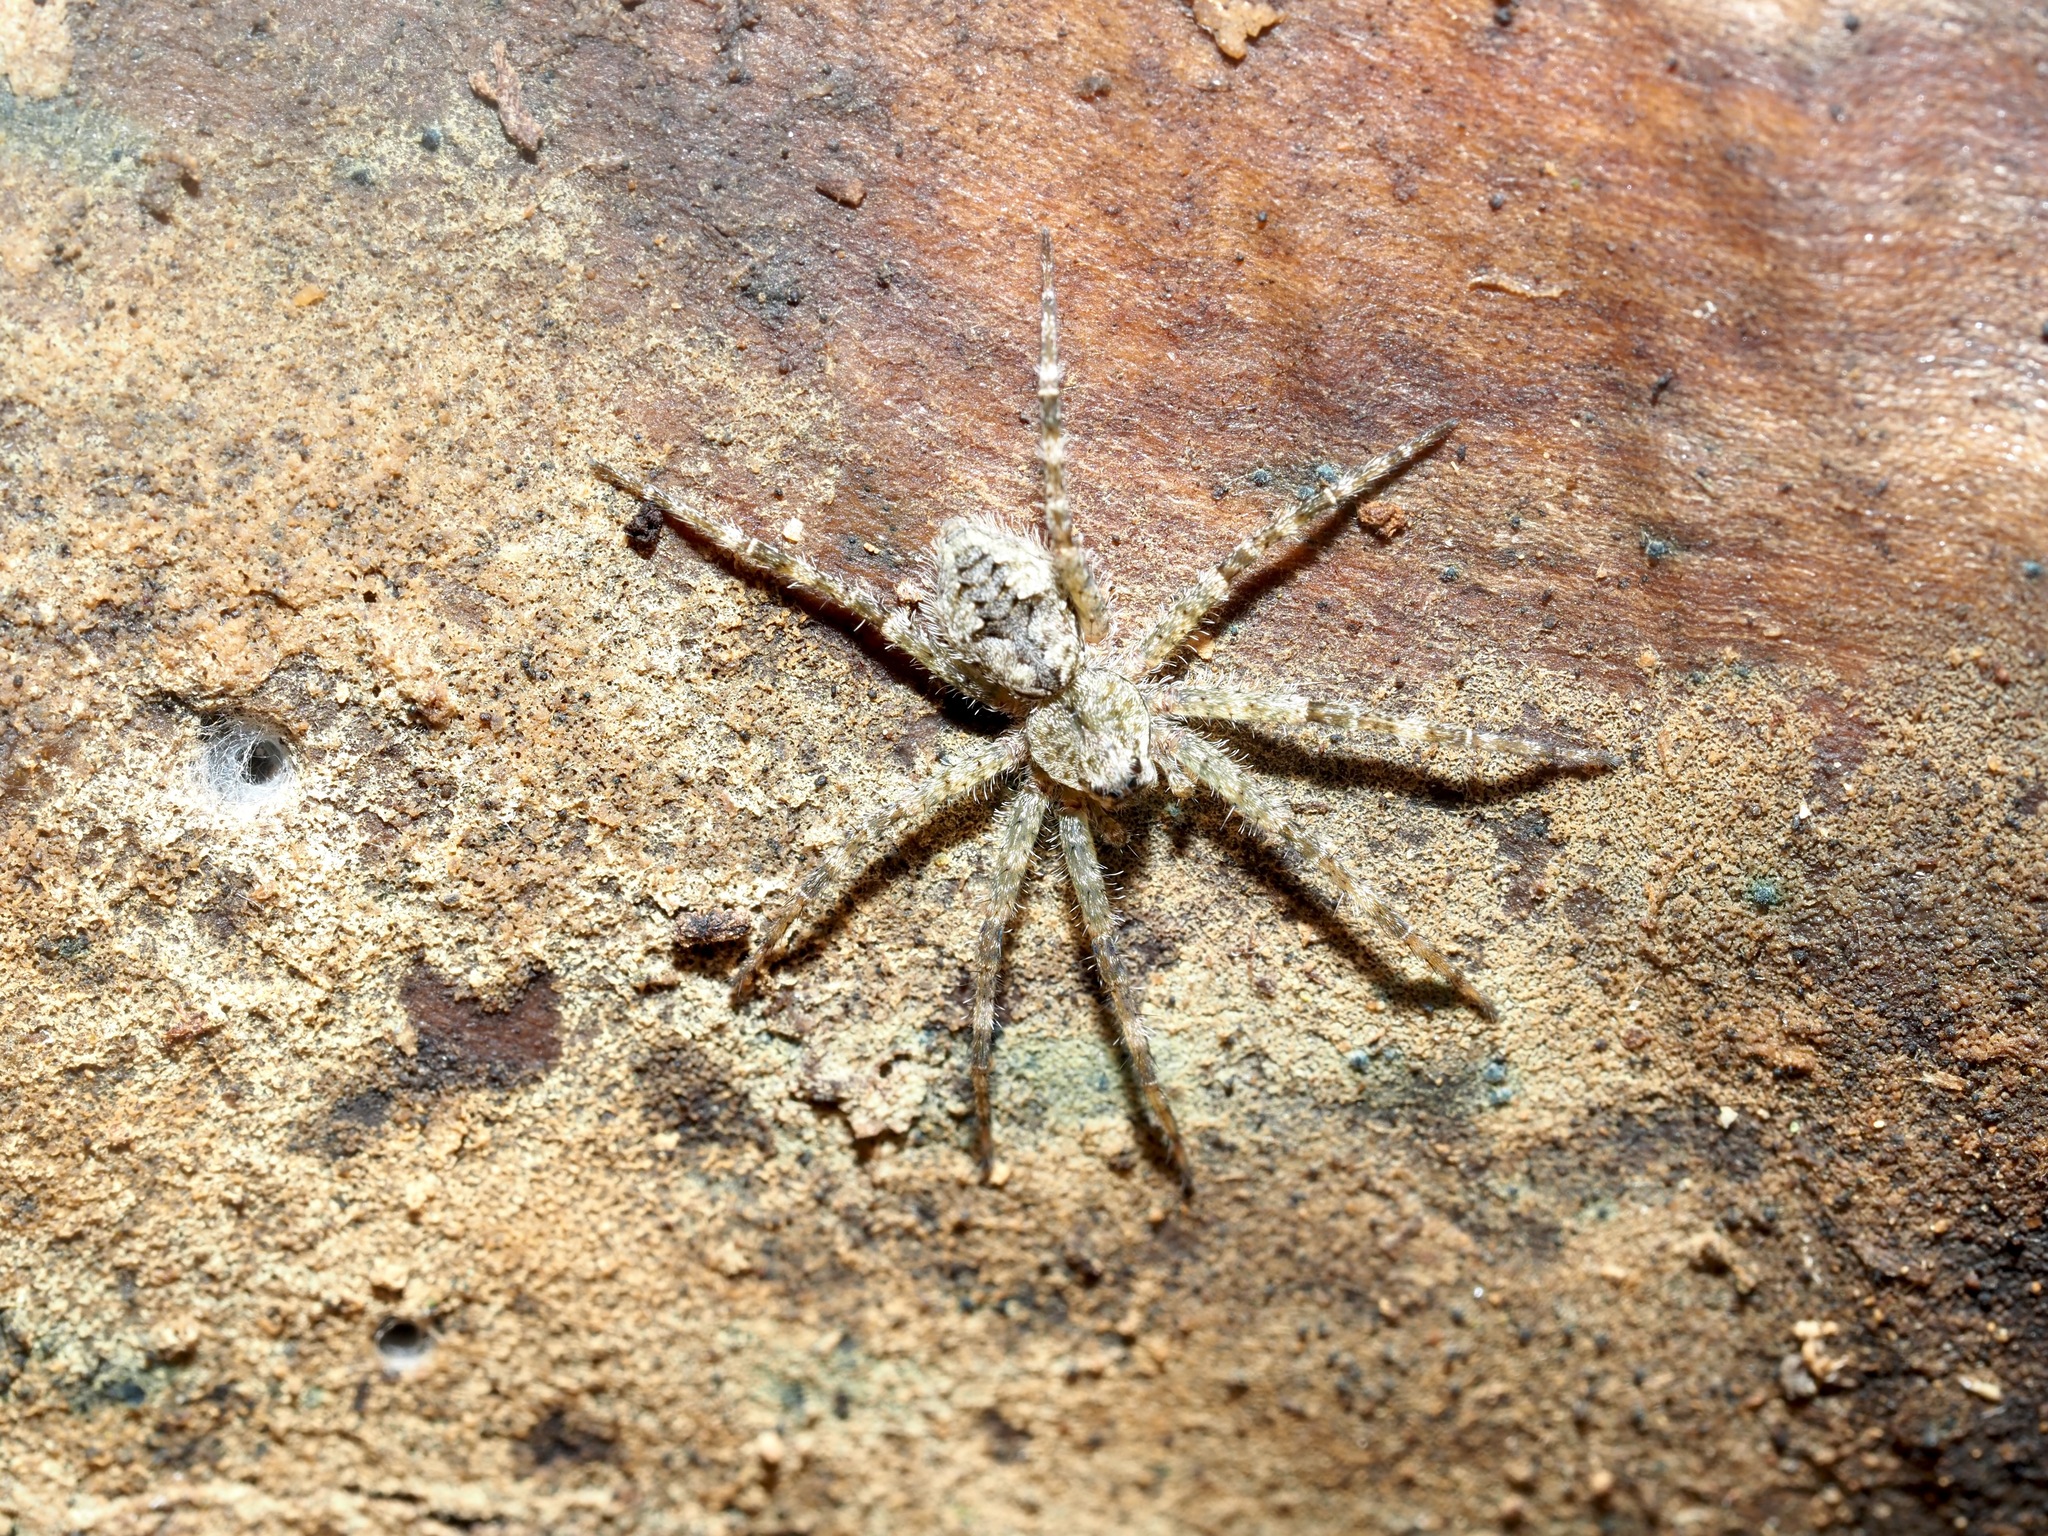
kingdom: Animalia
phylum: Arthropoda
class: Arachnida
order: Araneae
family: Pisauridae
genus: Dolomedes
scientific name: Dolomedes albineus
